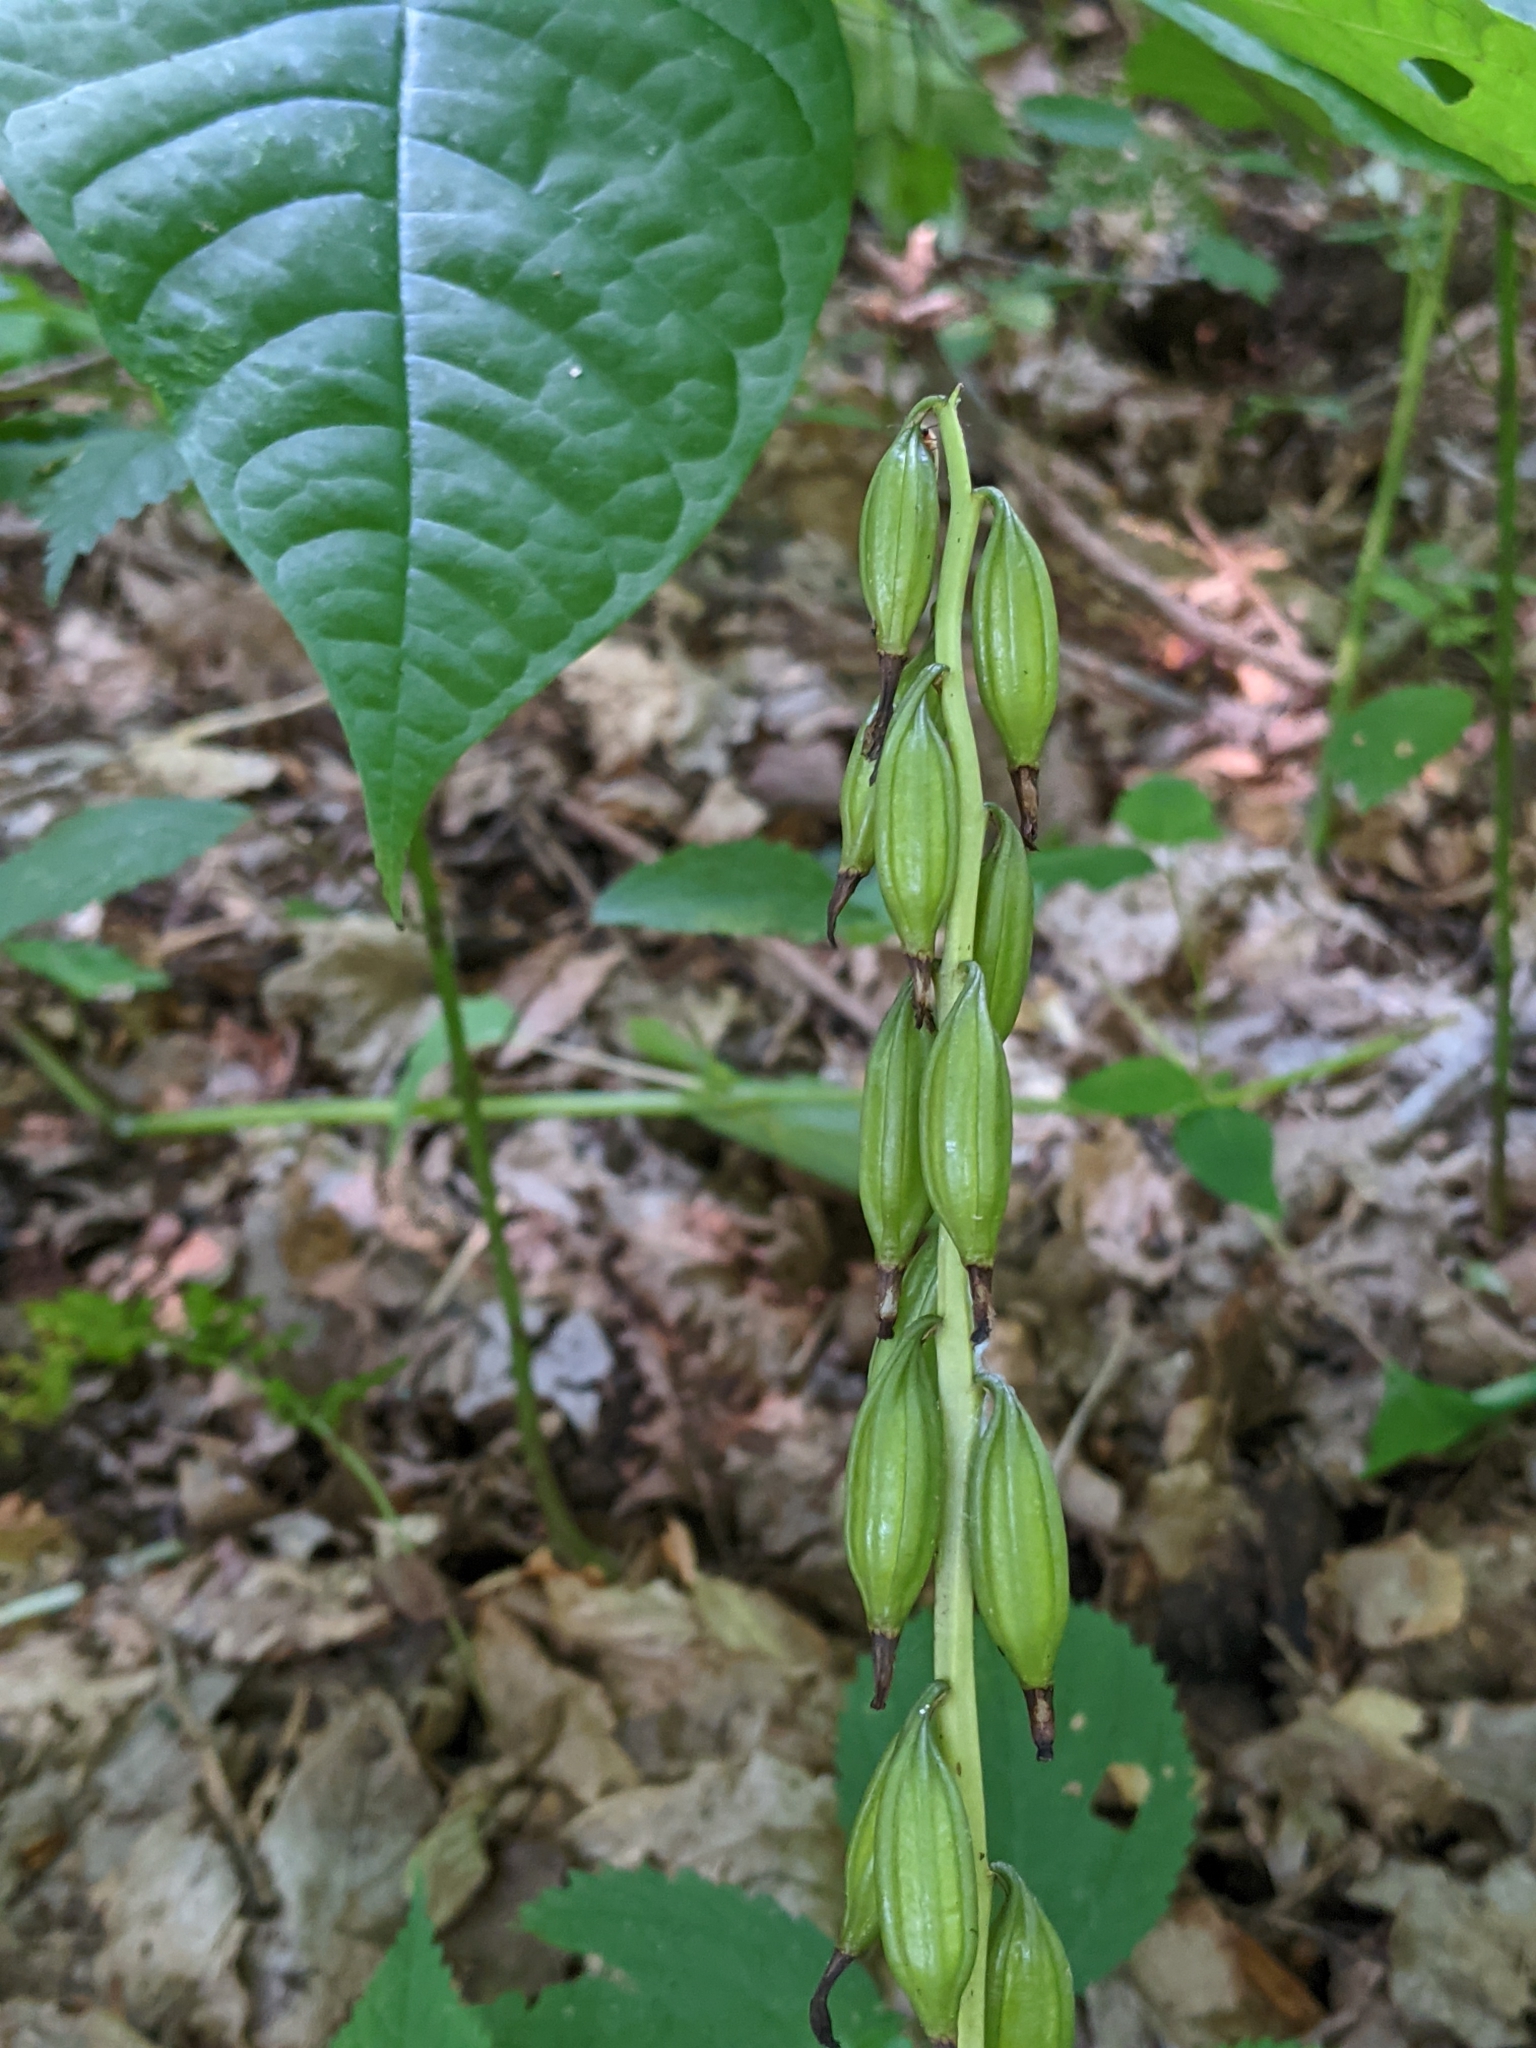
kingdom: Plantae
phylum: Tracheophyta
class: Liliopsida
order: Asparagales
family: Orchidaceae
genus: Aplectrum
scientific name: Aplectrum hyemale
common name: Adam-and-eve
